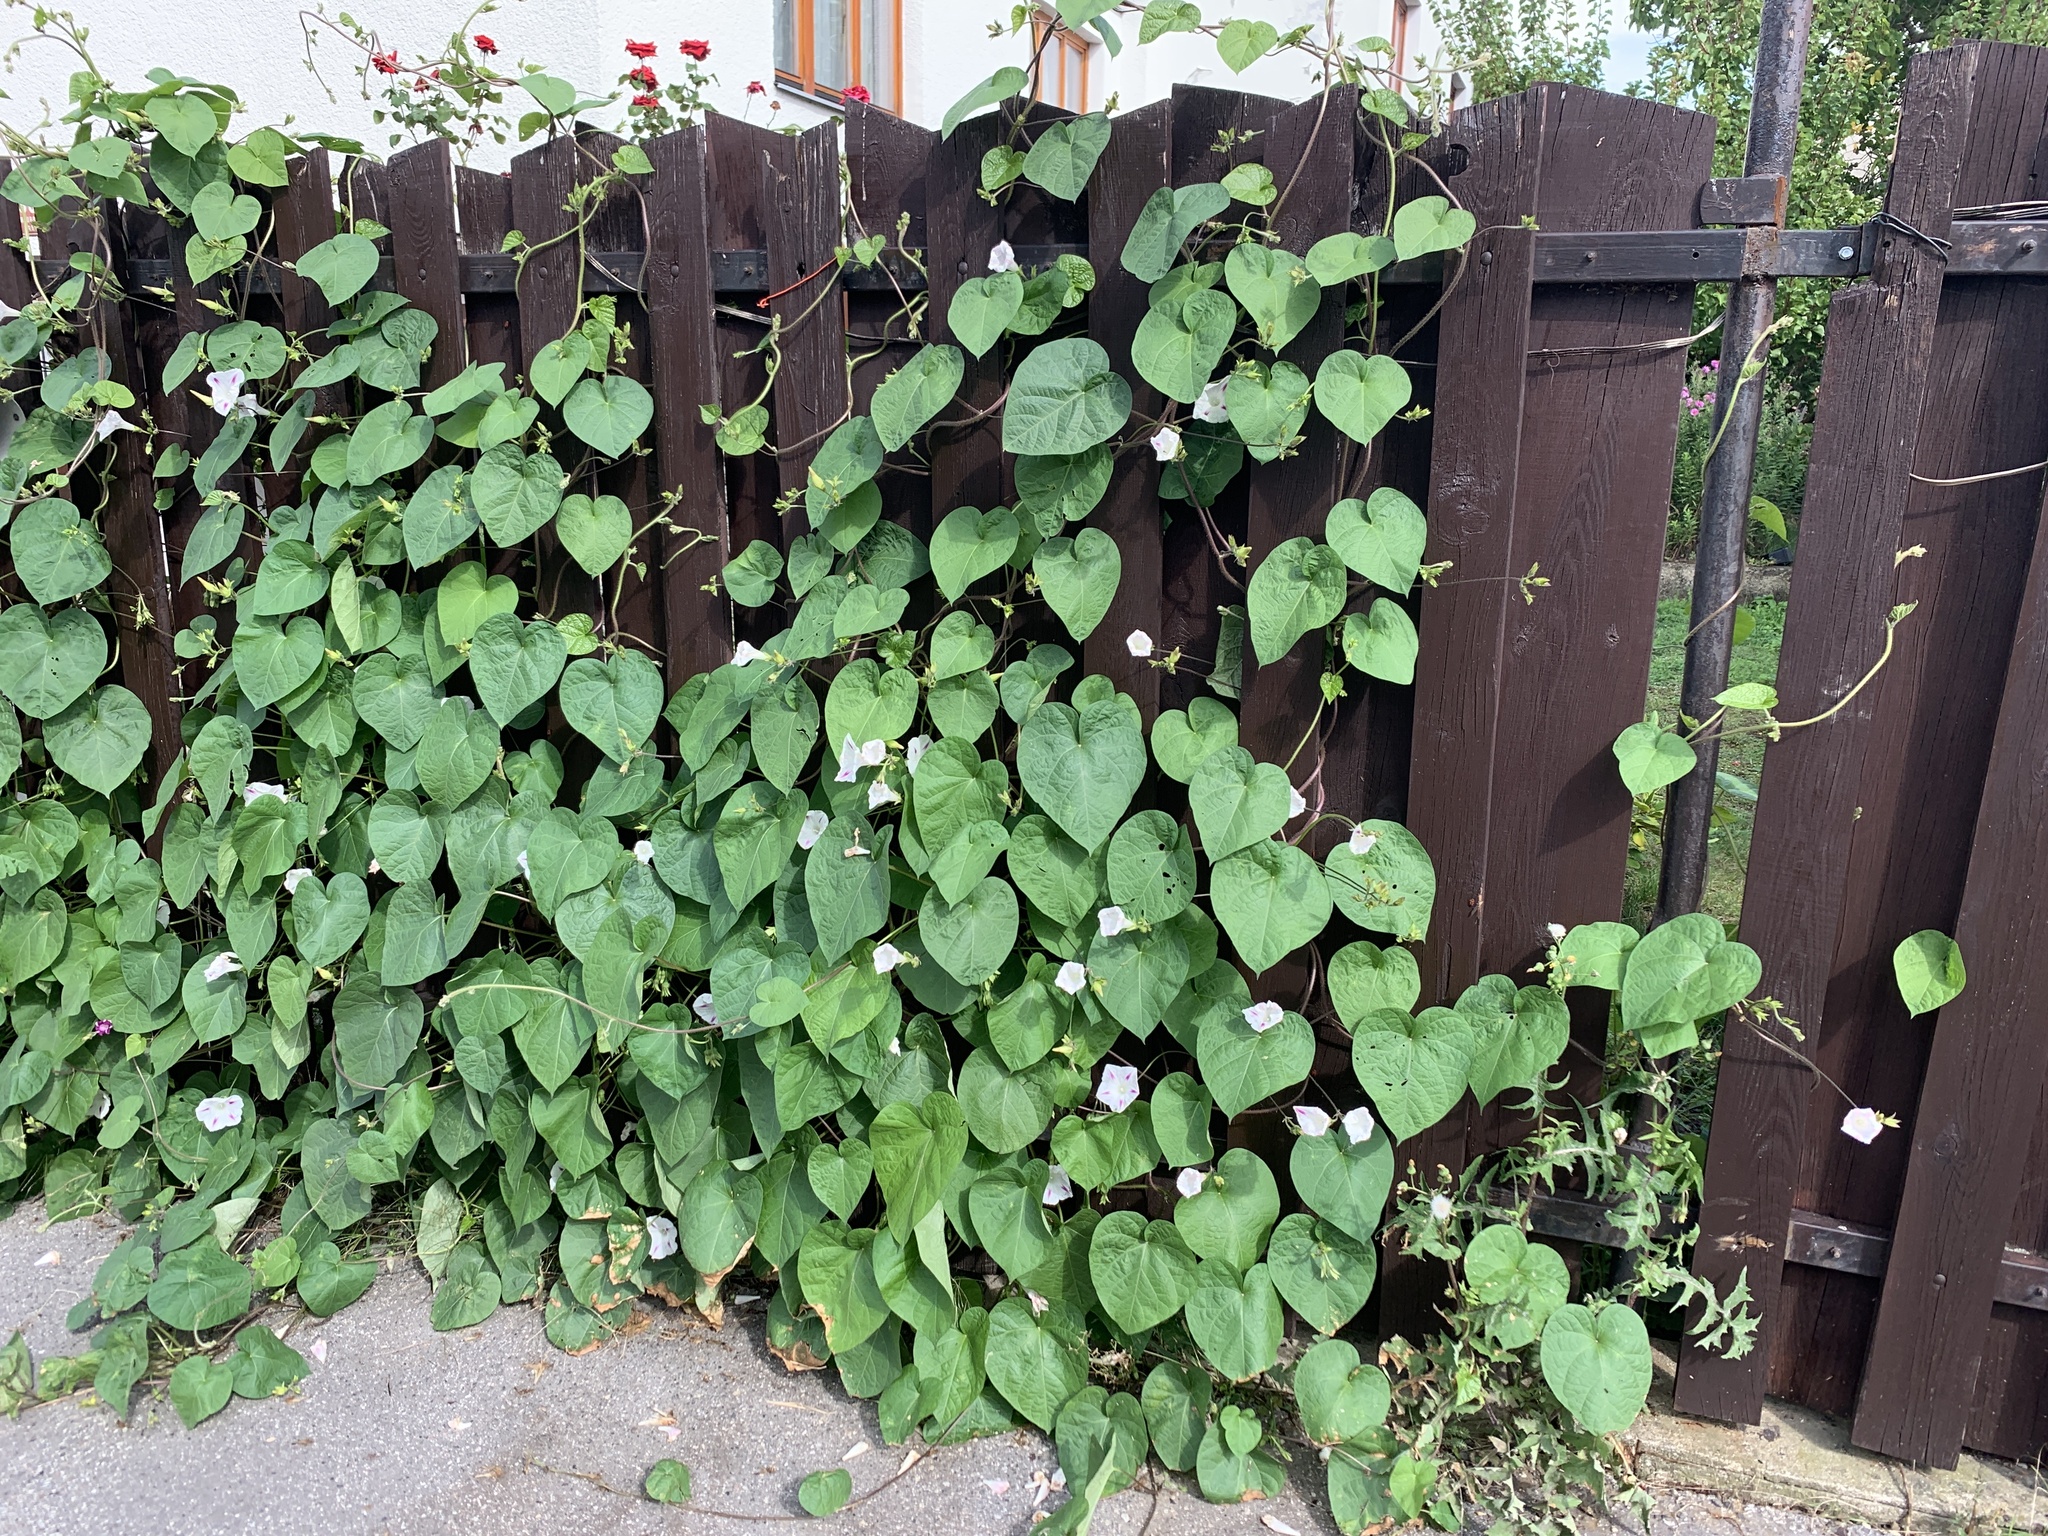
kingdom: Plantae
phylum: Tracheophyta
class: Magnoliopsida
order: Solanales
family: Convolvulaceae
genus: Ipomoea
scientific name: Ipomoea purpurea
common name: Common morning-glory
